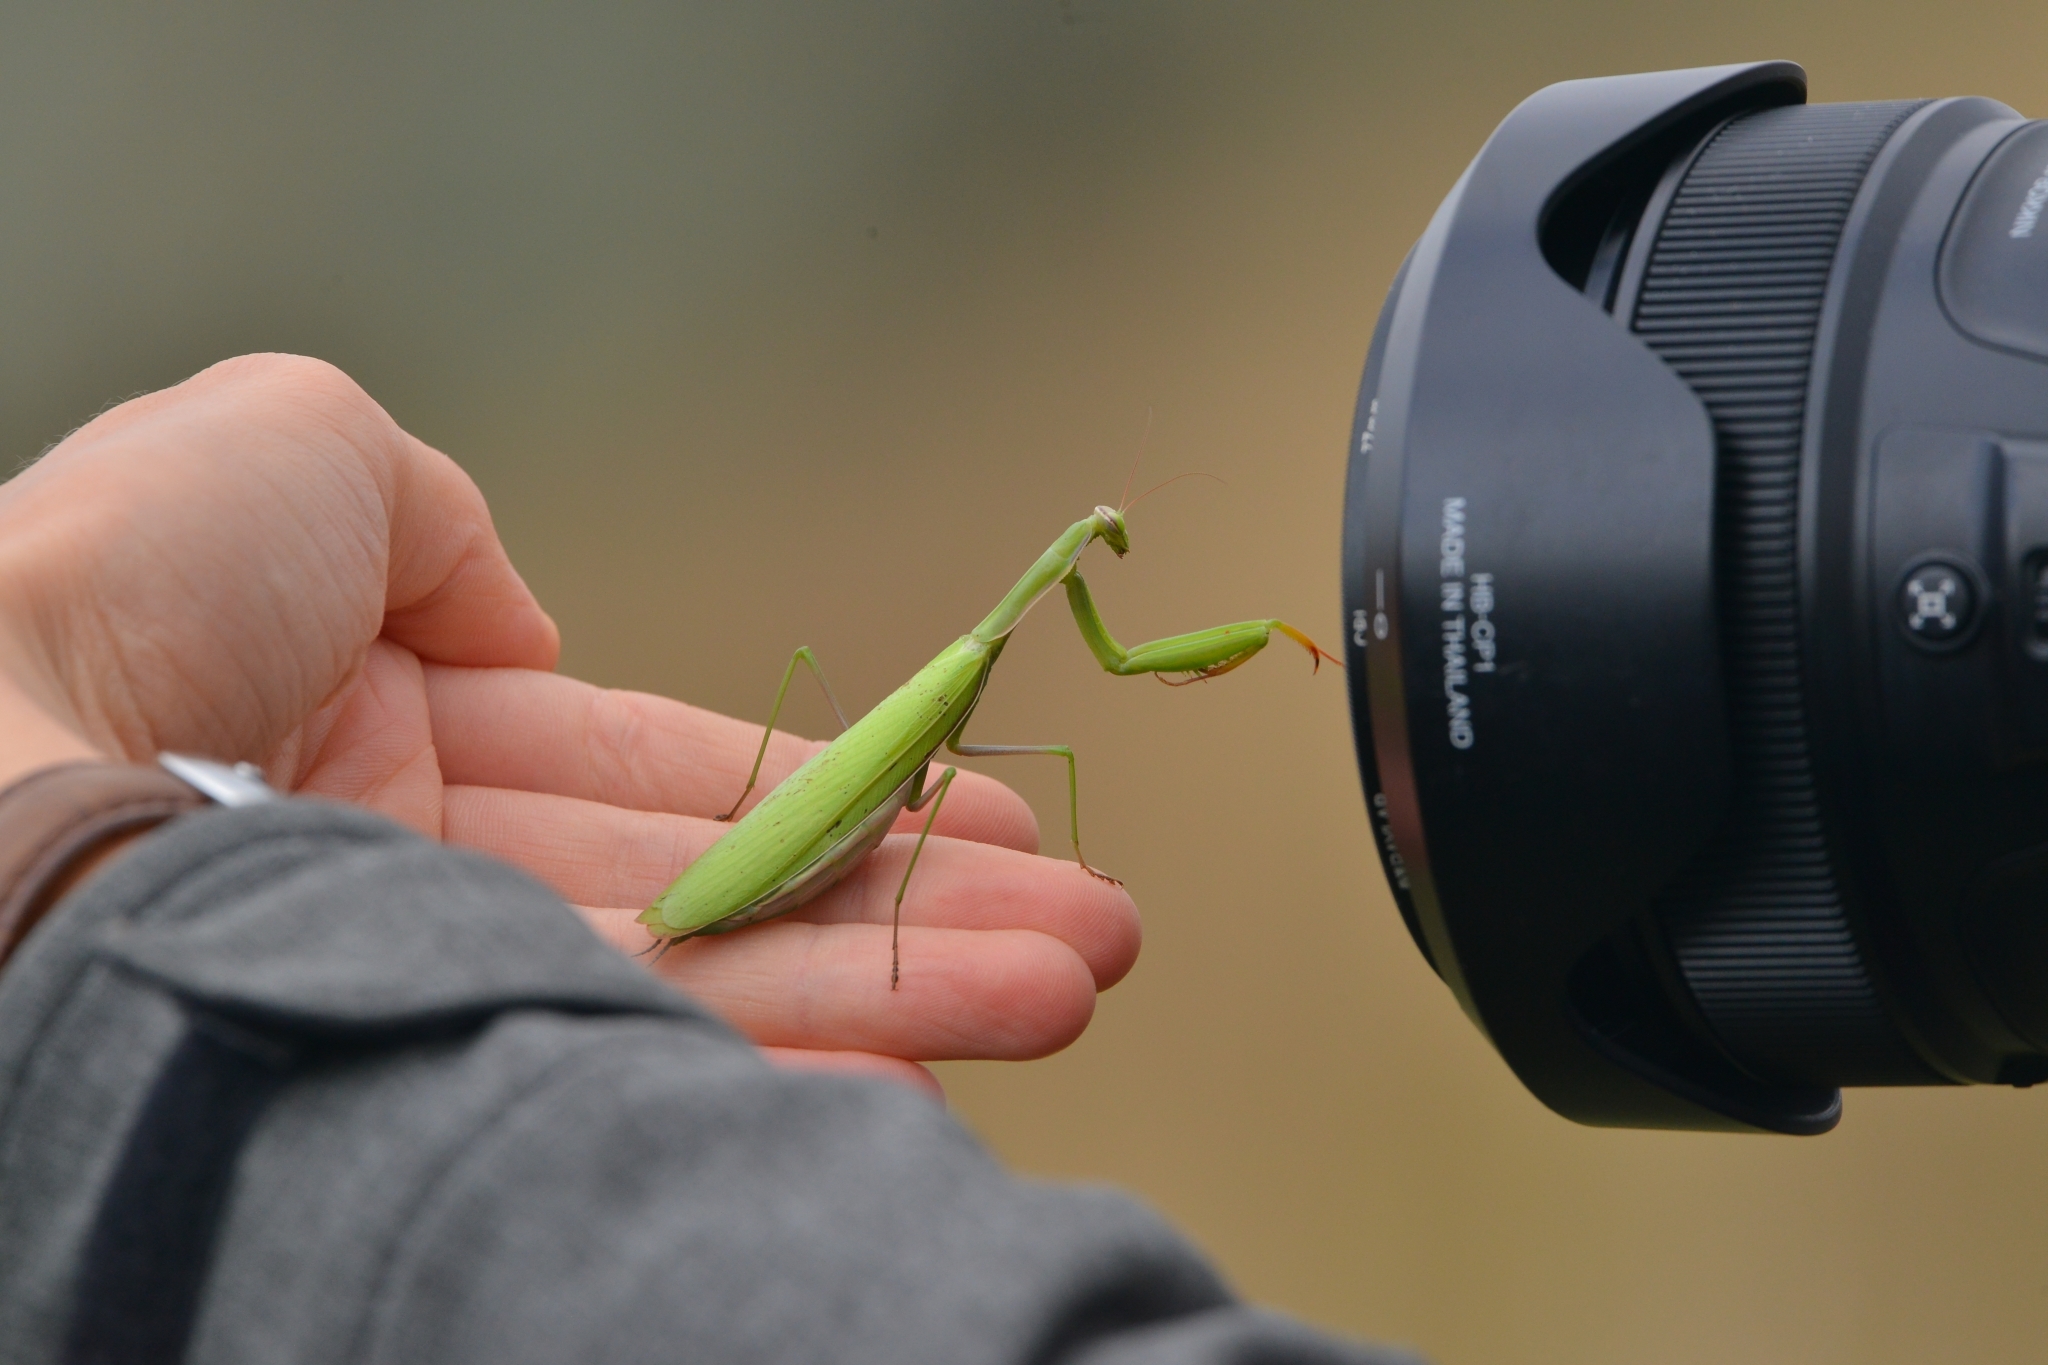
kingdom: Animalia
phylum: Arthropoda
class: Insecta
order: Mantodea
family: Mantidae
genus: Mantis
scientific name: Mantis religiosa
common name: Praying mantis
